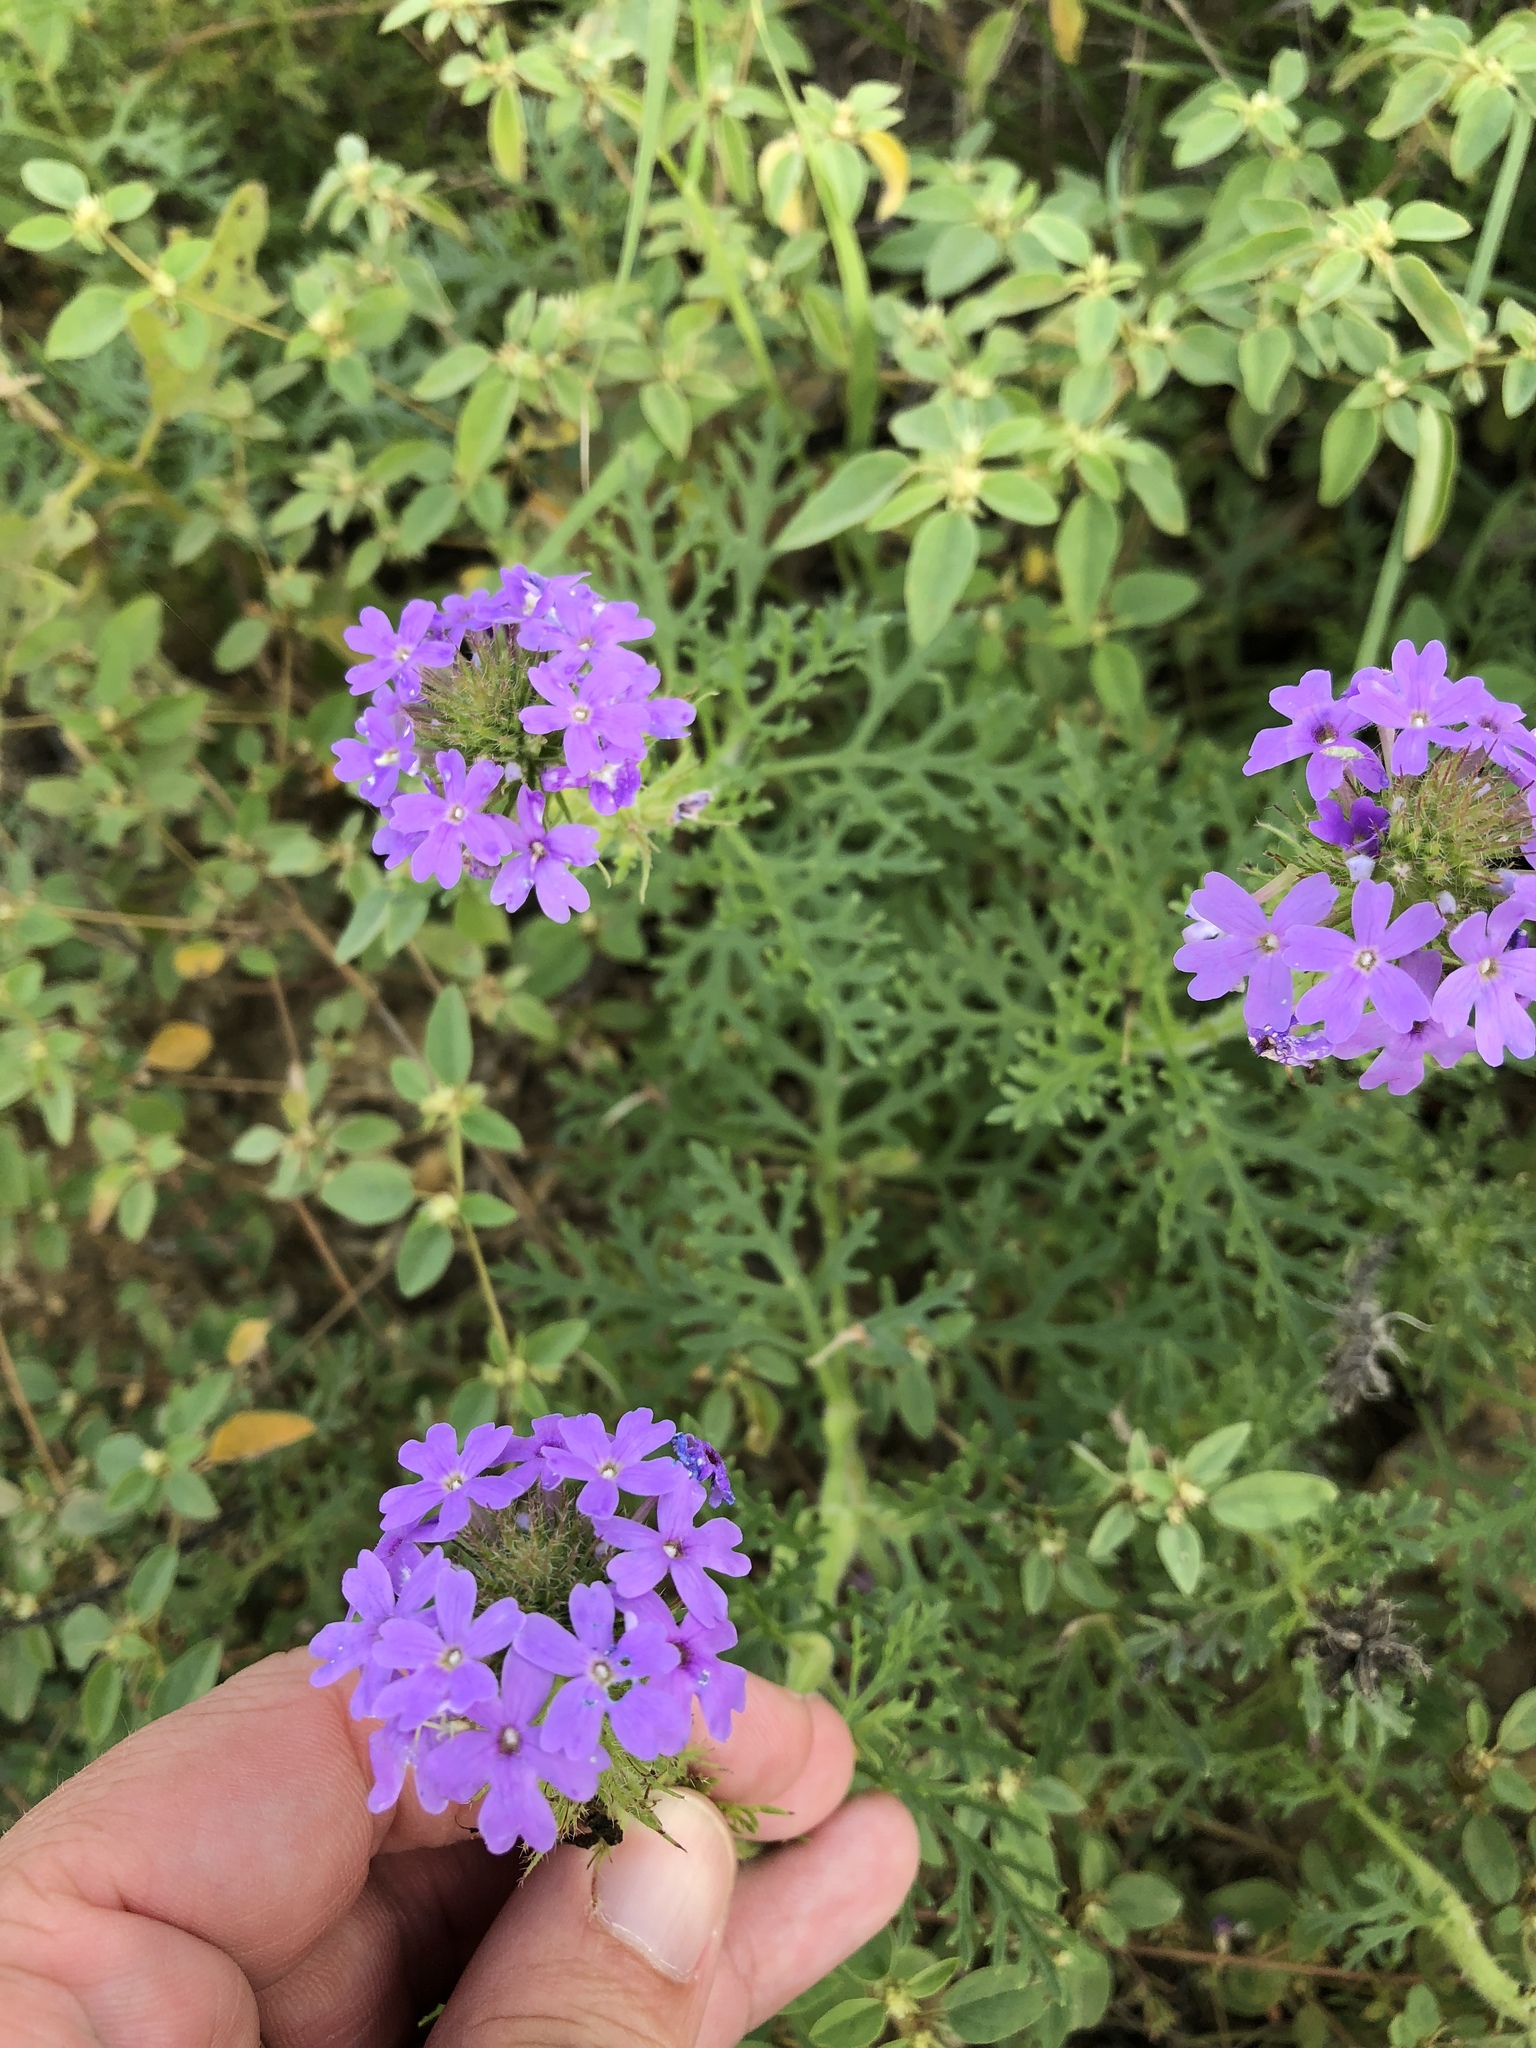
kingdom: Plantae
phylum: Tracheophyta
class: Magnoliopsida
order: Lamiales
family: Verbenaceae
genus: Verbena
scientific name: Verbena bipinnatifida
